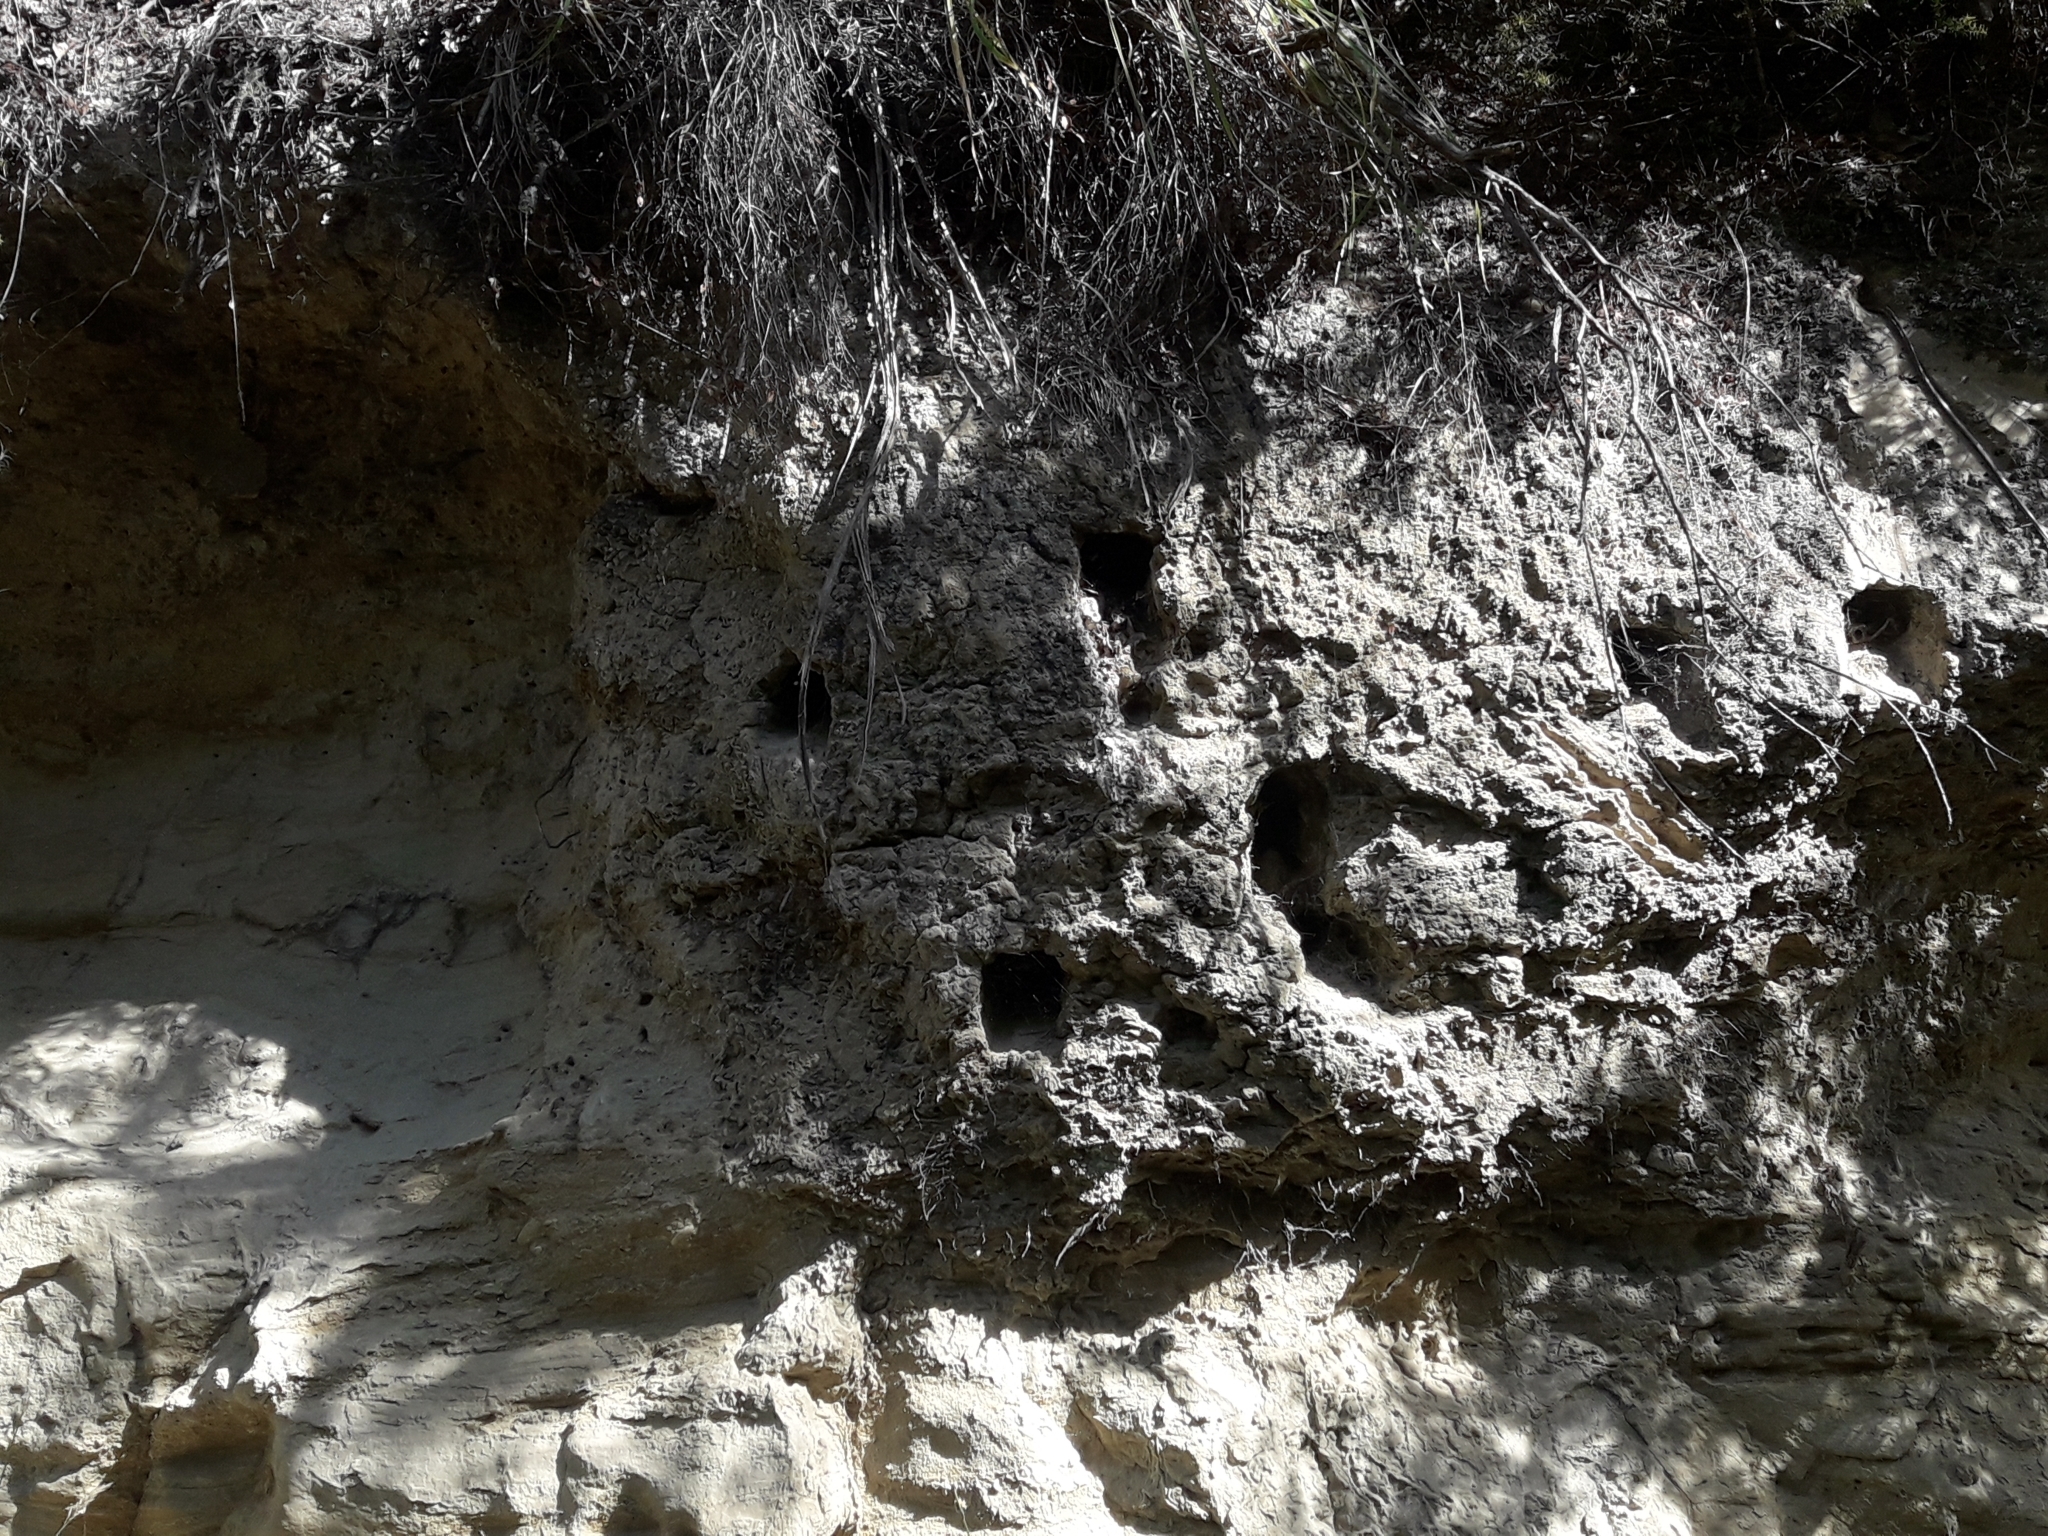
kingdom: Animalia
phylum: Chordata
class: Aves
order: Coraciiformes
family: Alcedinidae
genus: Todiramphus
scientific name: Todiramphus sanctus
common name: Sacred kingfisher
